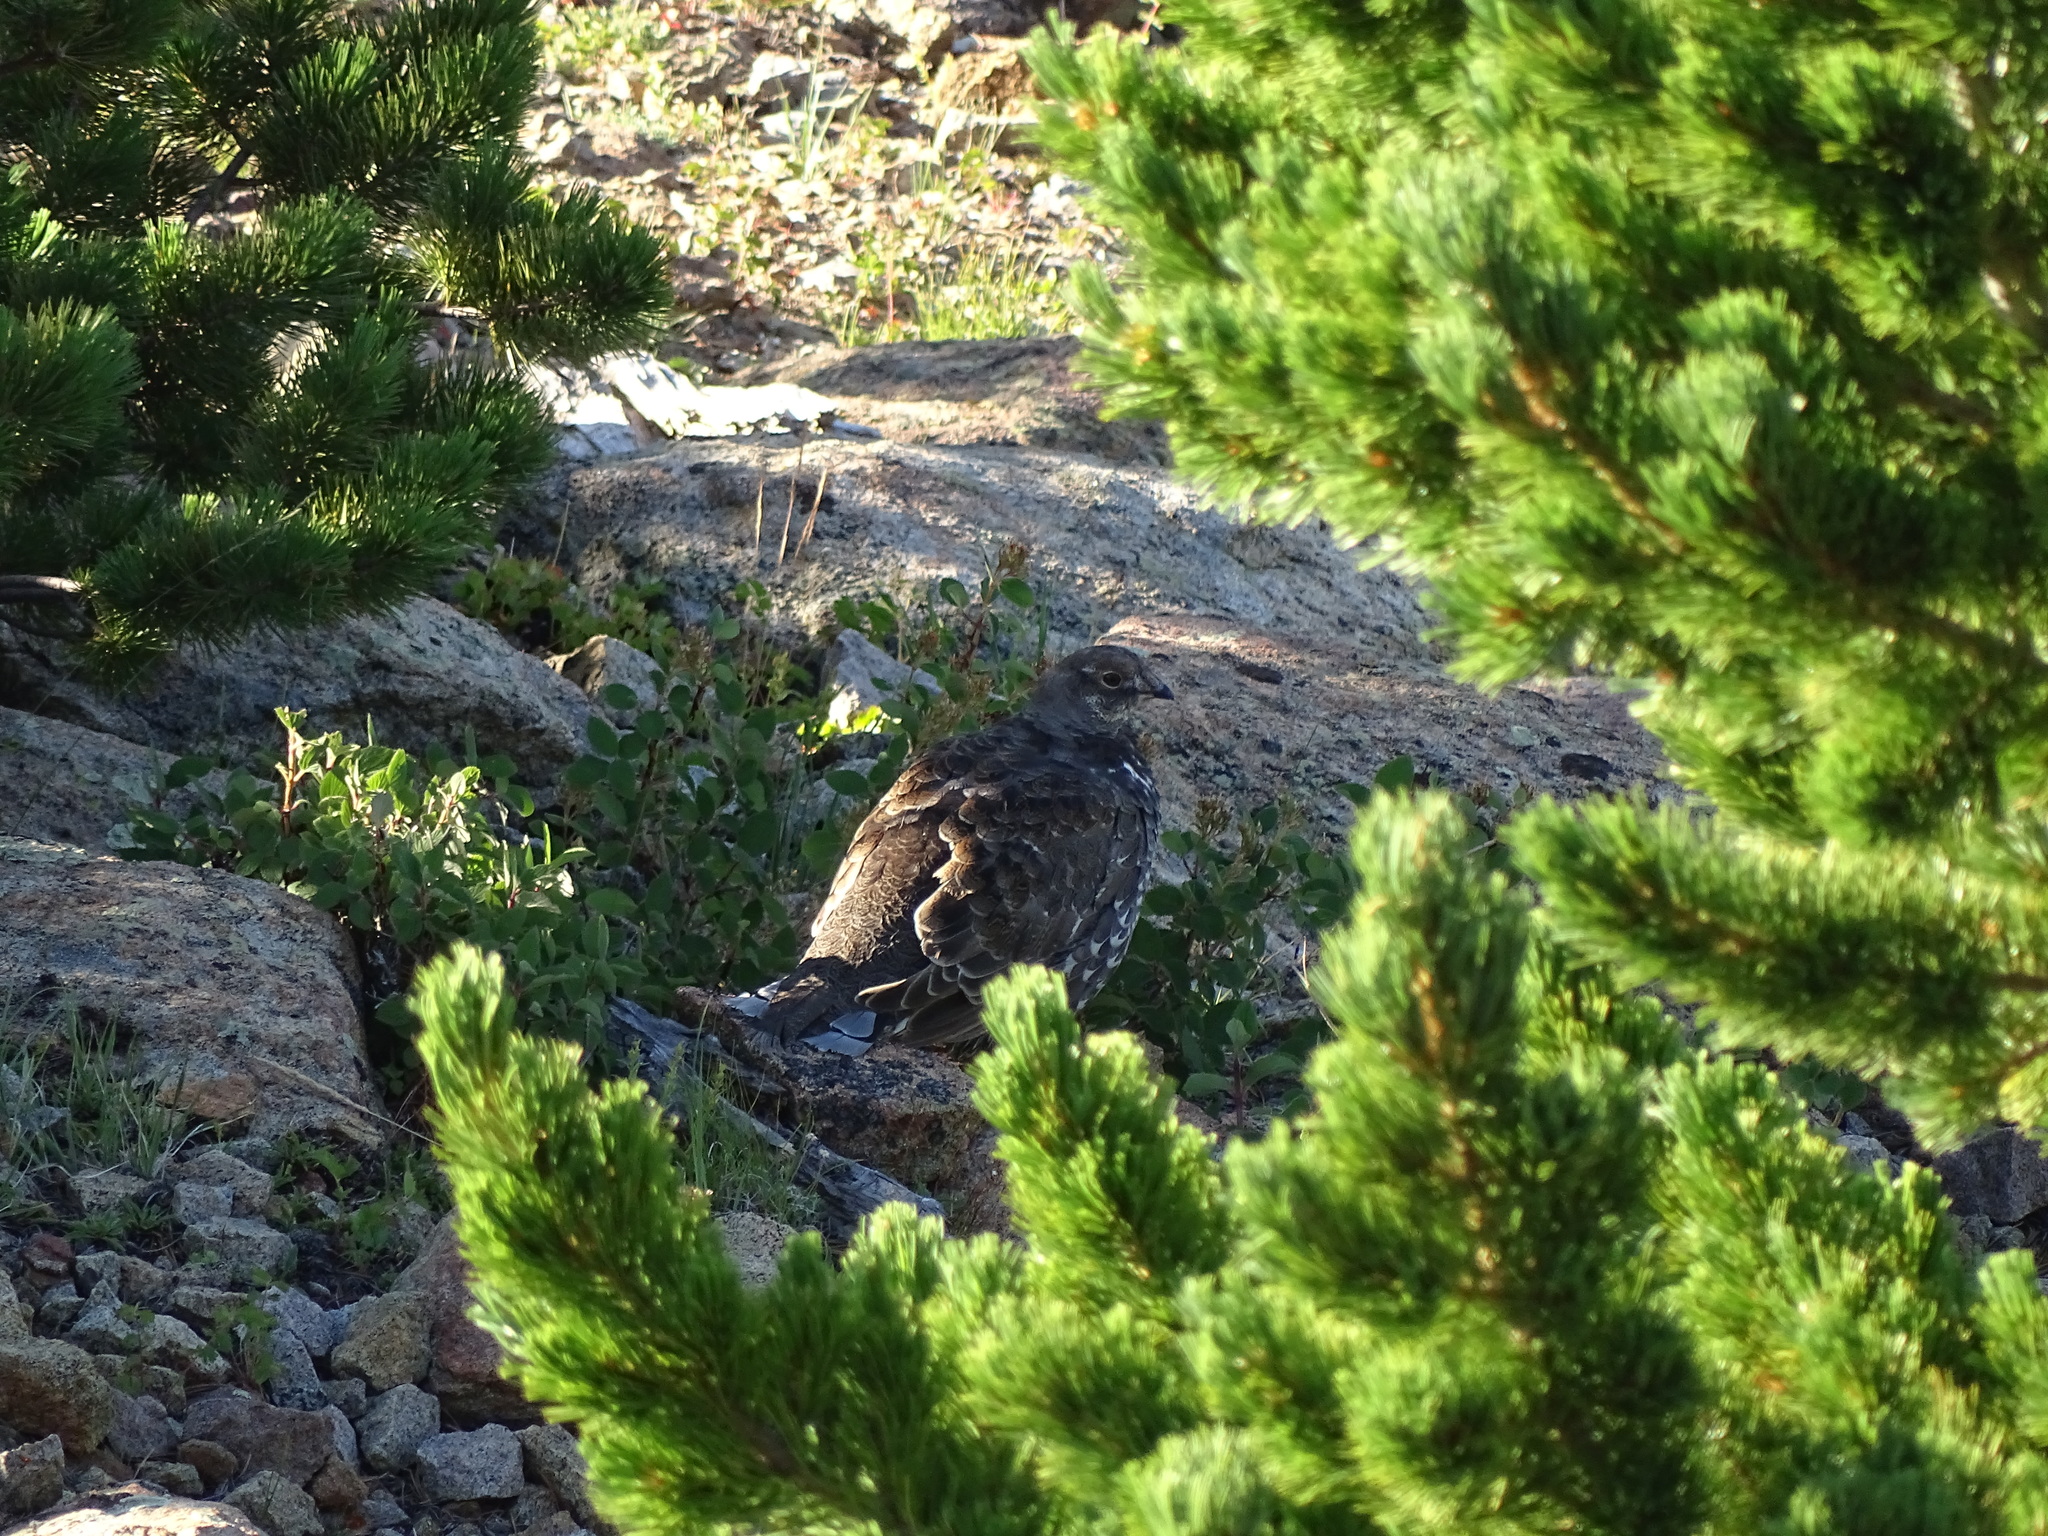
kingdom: Animalia
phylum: Chordata
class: Aves
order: Galliformes
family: Phasianidae
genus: Dendragapus
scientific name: Dendragapus obscurus
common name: Dusky grouse
